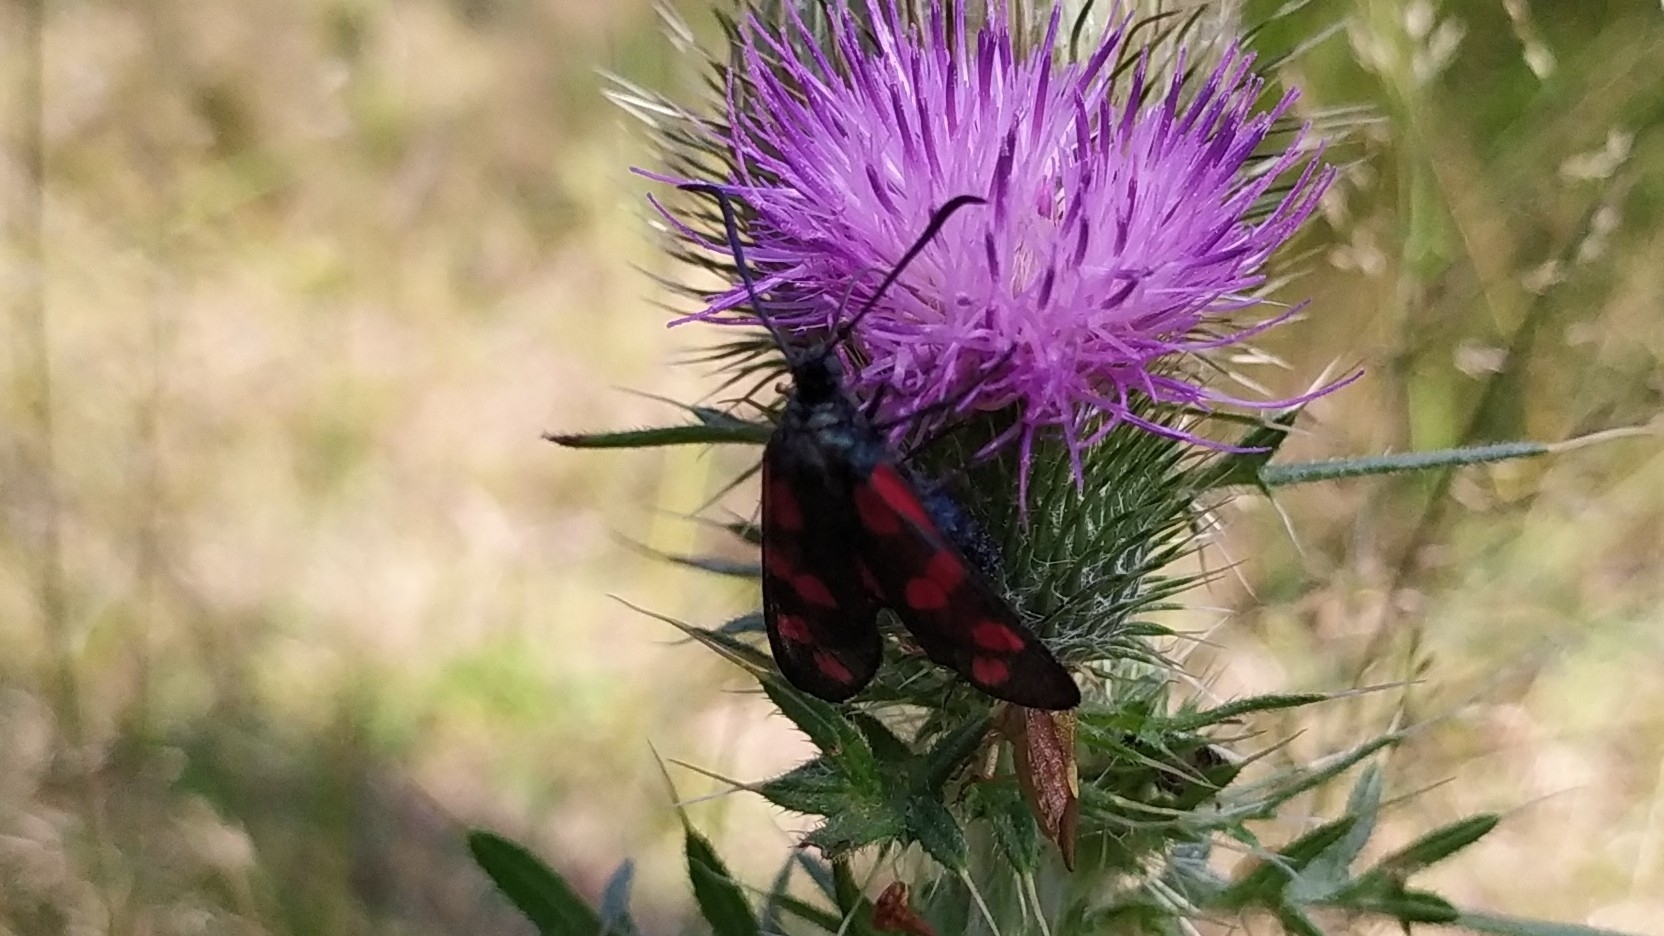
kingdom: Animalia
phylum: Arthropoda
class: Insecta
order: Lepidoptera
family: Zygaenidae
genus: Zygaena
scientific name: Zygaena filipendulae
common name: Six-spot burnet
